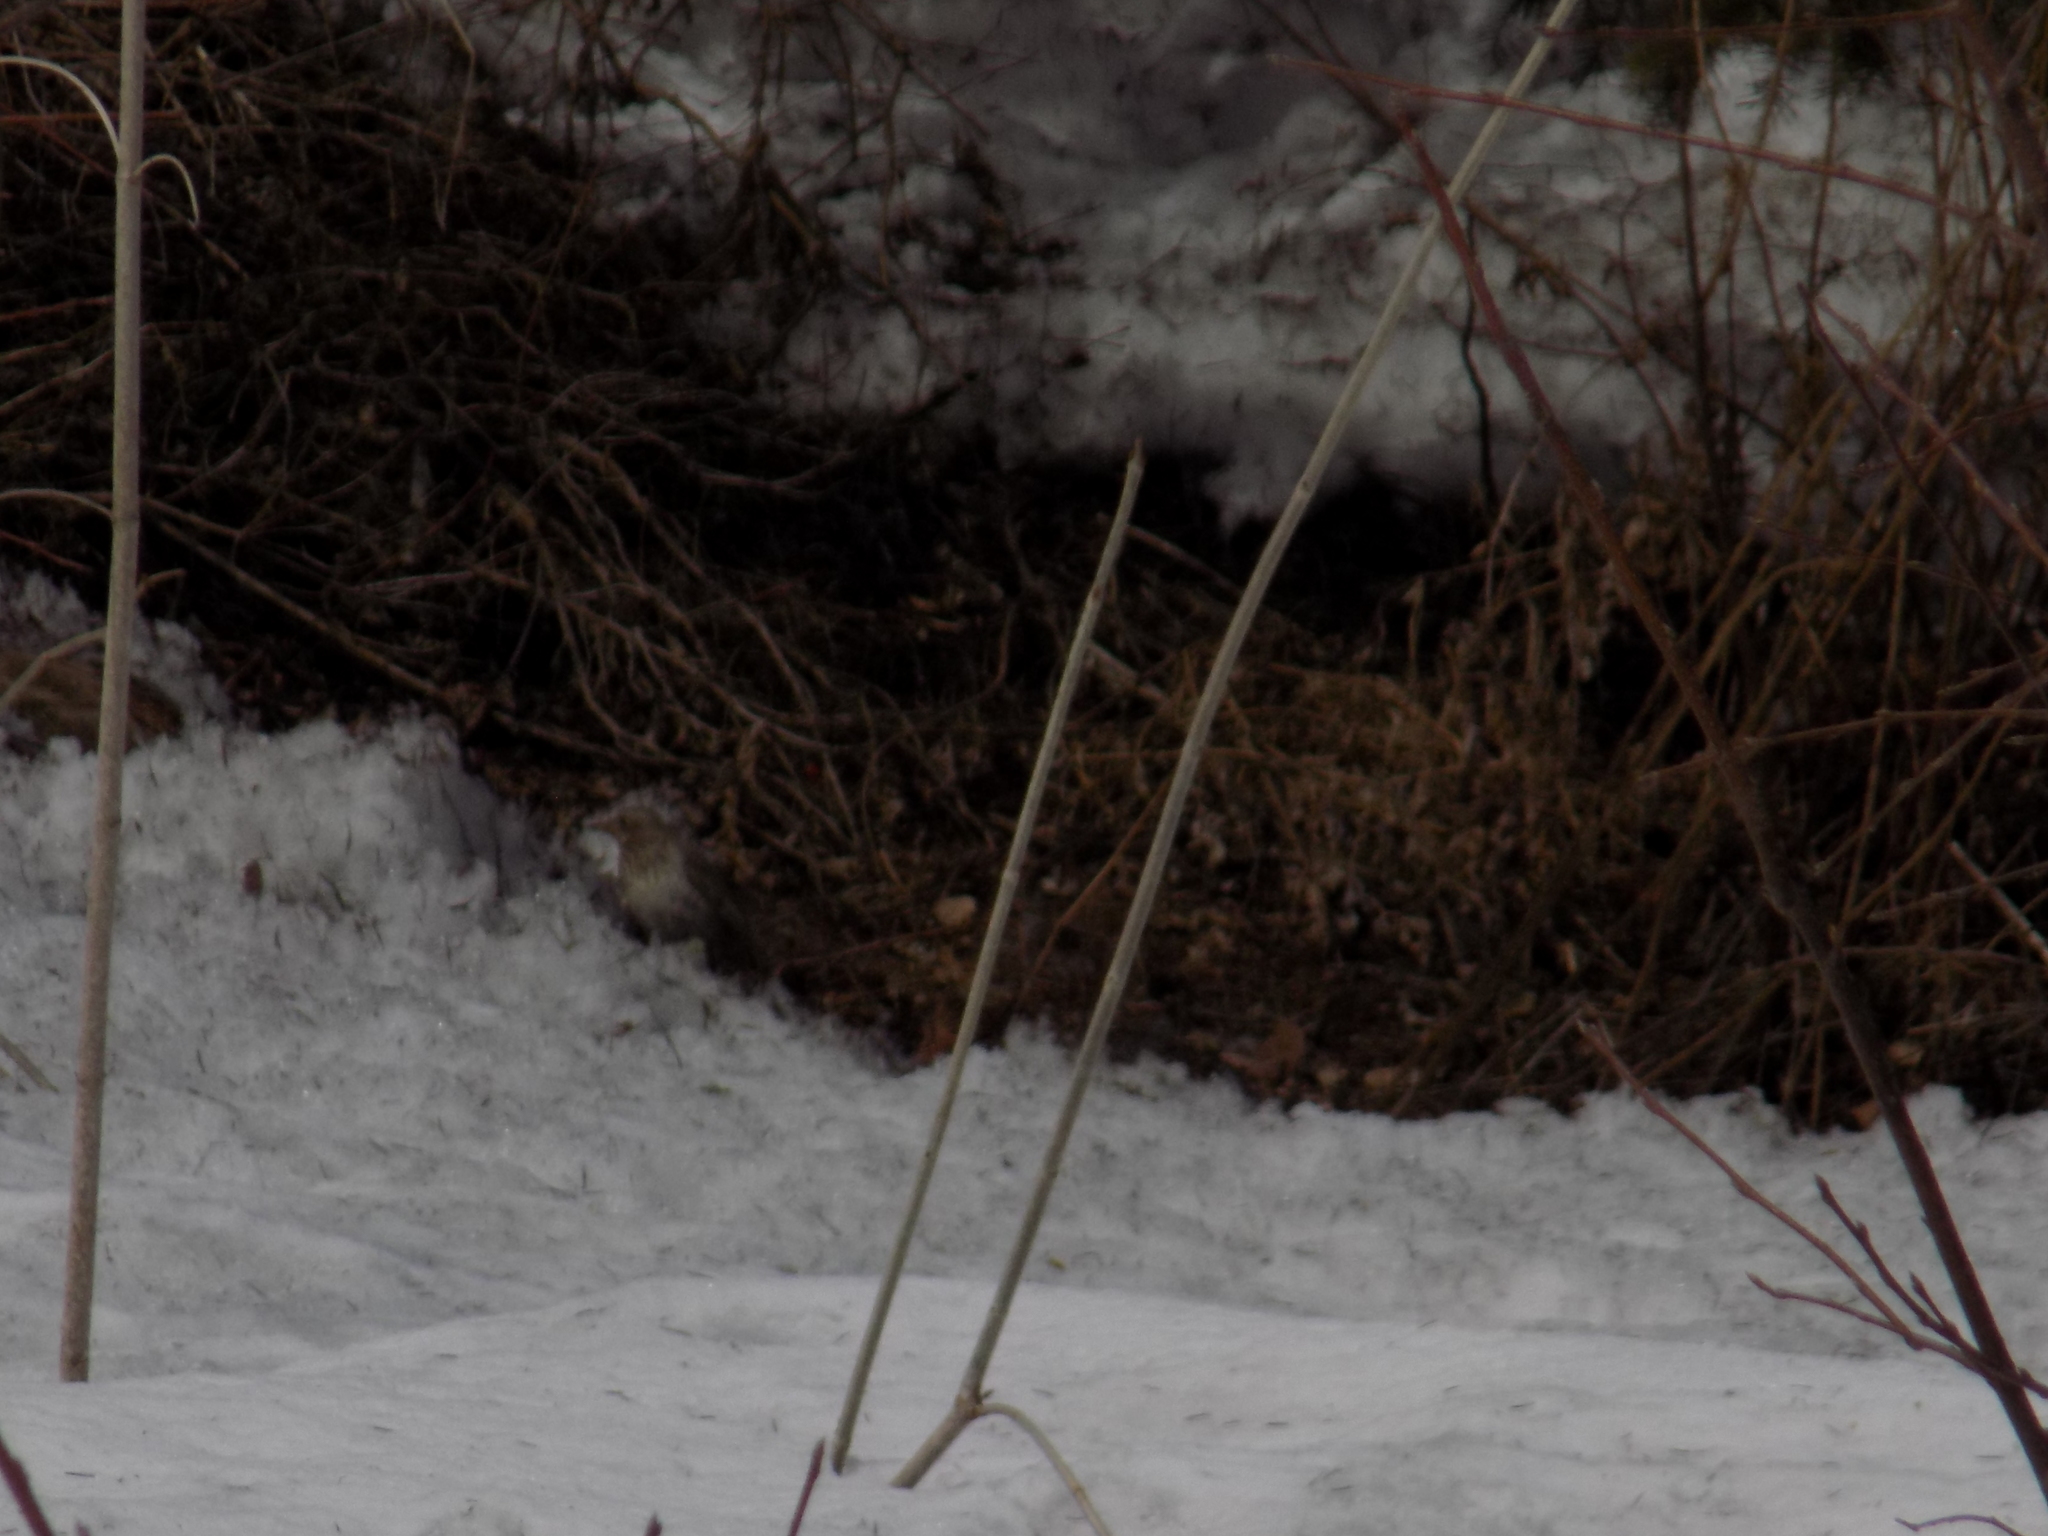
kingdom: Animalia
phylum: Chordata
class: Aves
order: Passeriformes
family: Turdidae
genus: Turdus
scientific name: Turdus atrogularis
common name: Black-throated thrush
